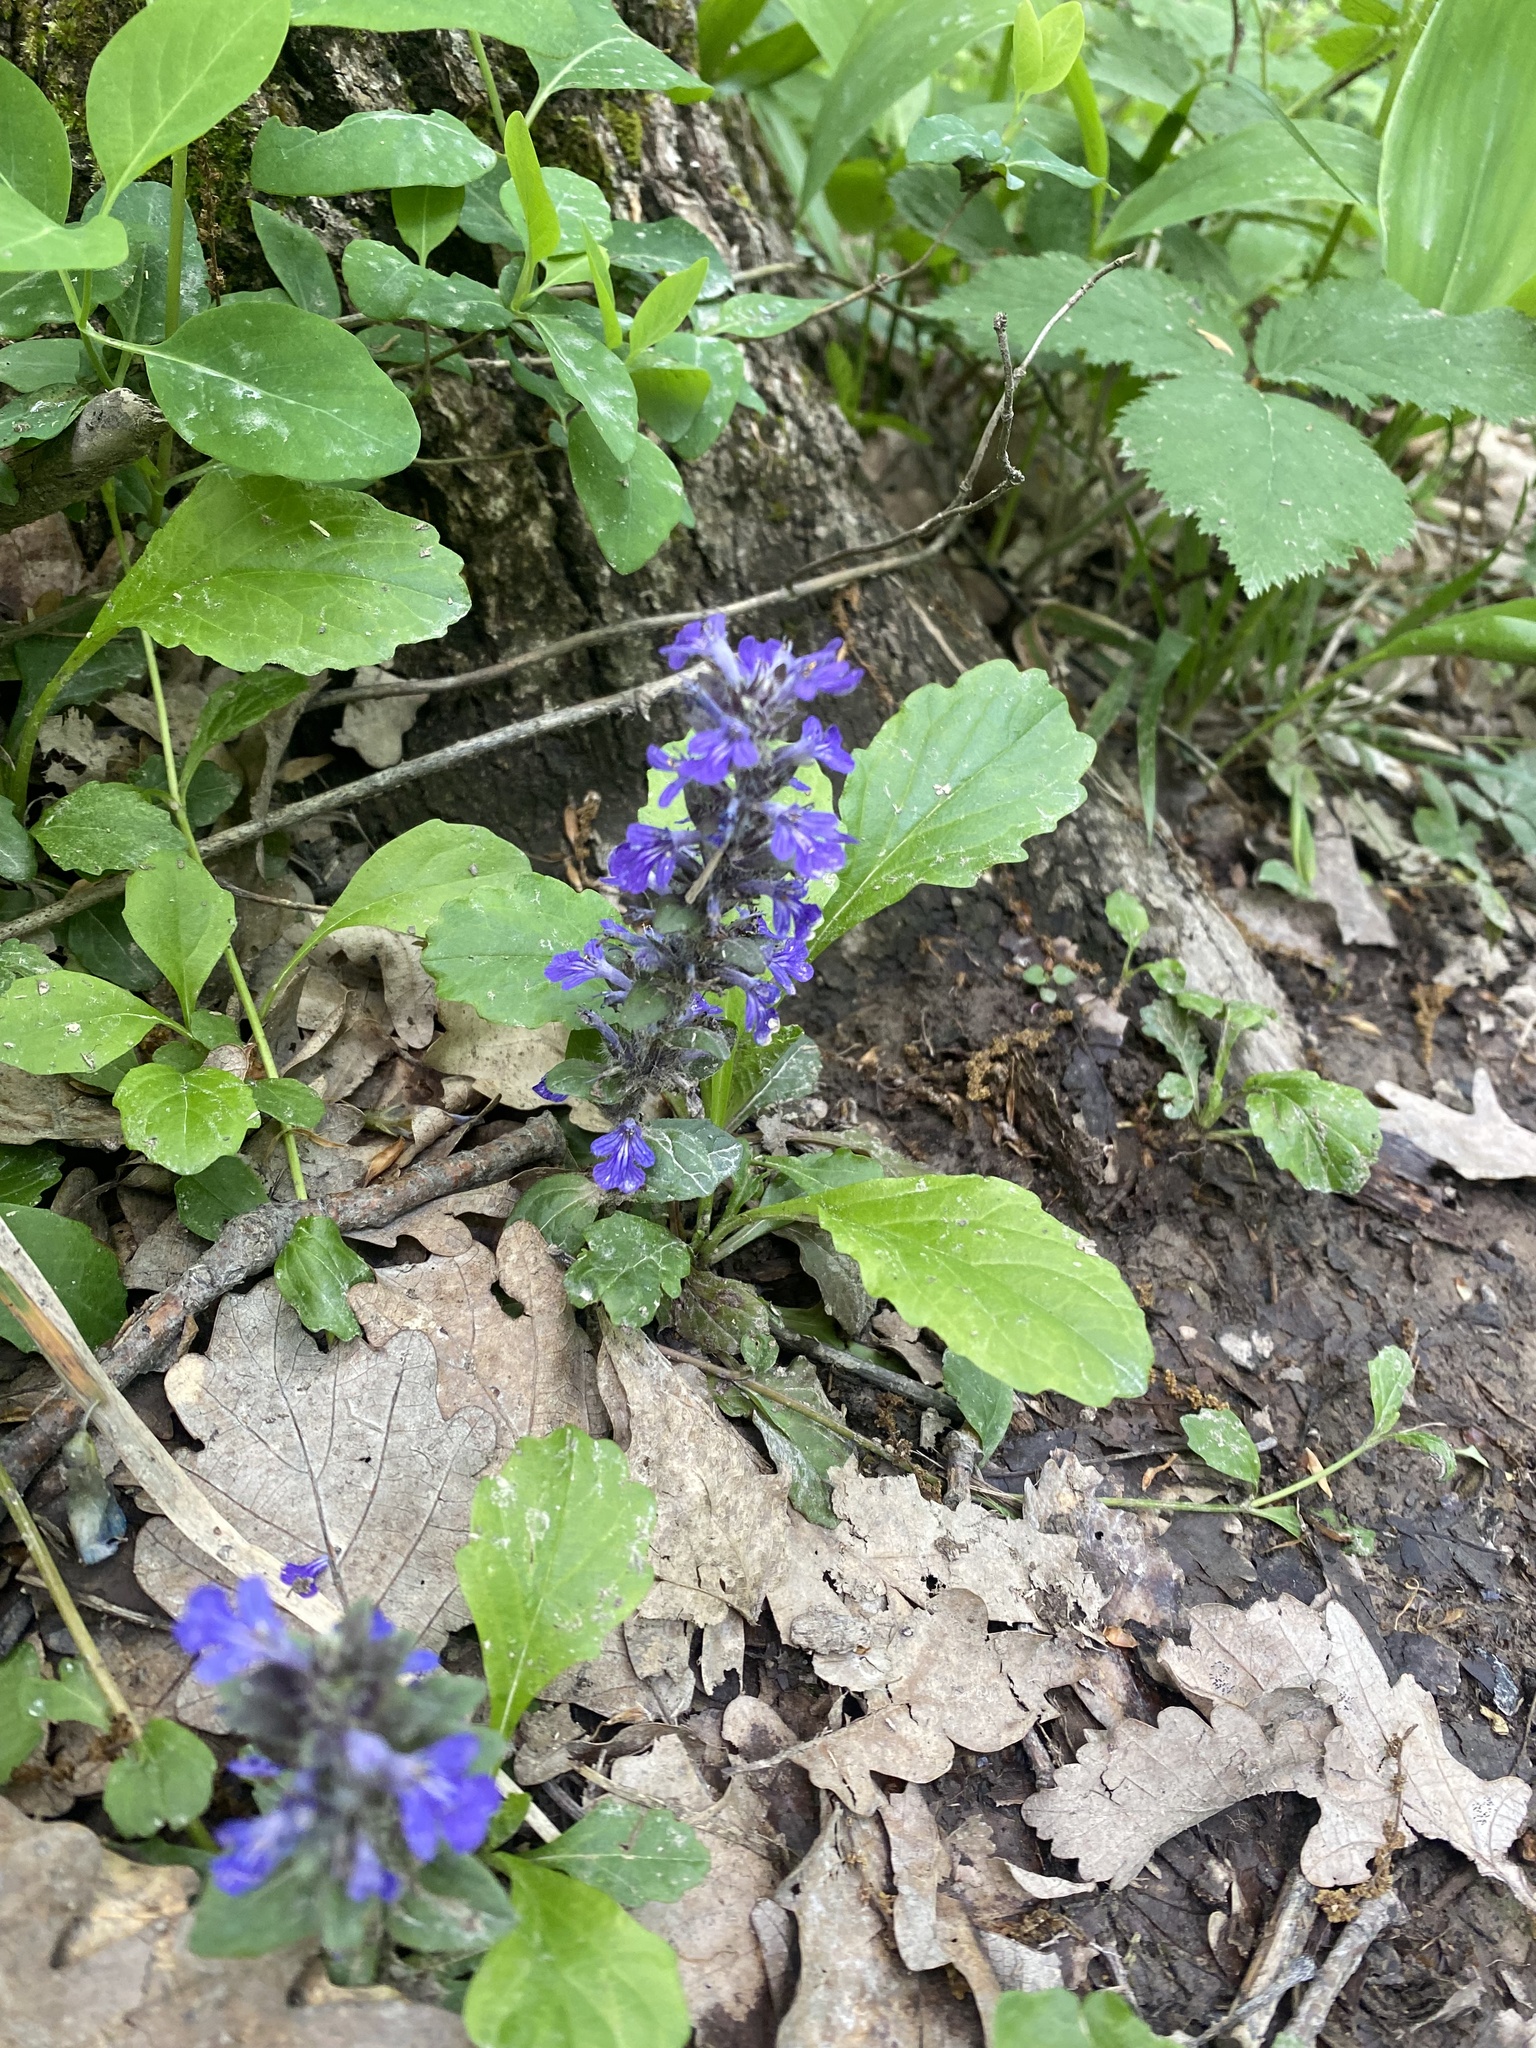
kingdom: Plantae
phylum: Tracheophyta
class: Magnoliopsida
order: Lamiales
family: Lamiaceae
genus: Ajuga
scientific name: Ajuga reptans
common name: Bugle
